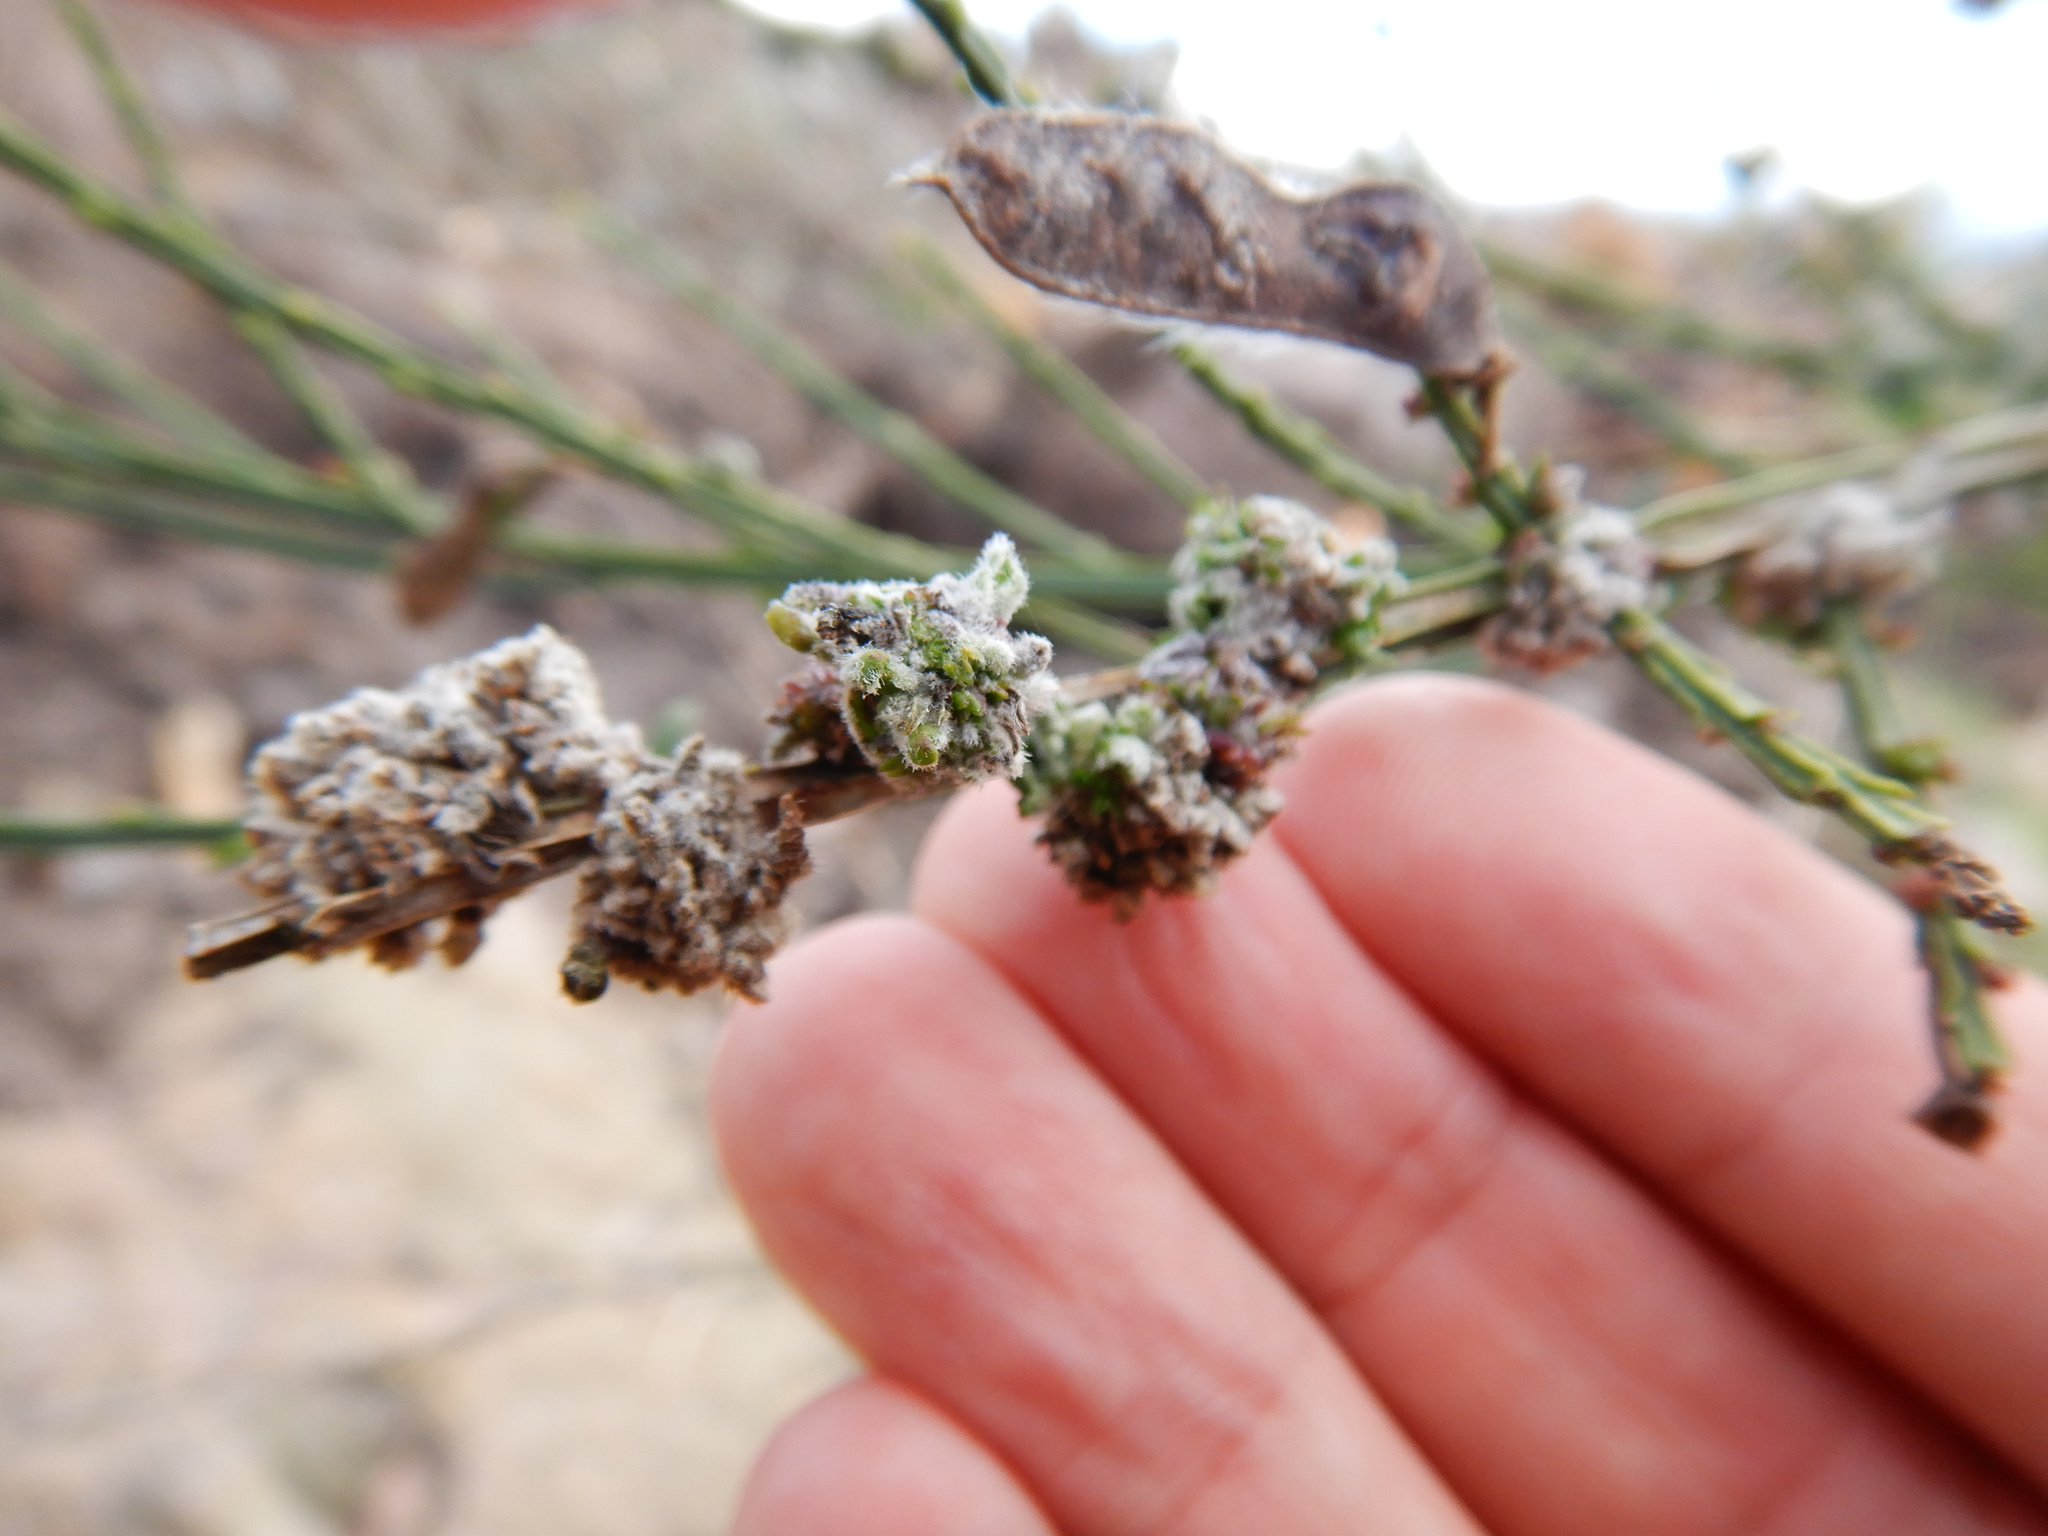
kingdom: Animalia
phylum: Arthropoda
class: Arachnida
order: Trombidiformes
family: Eriophyidae
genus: Aceria
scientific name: Aceria genistae
